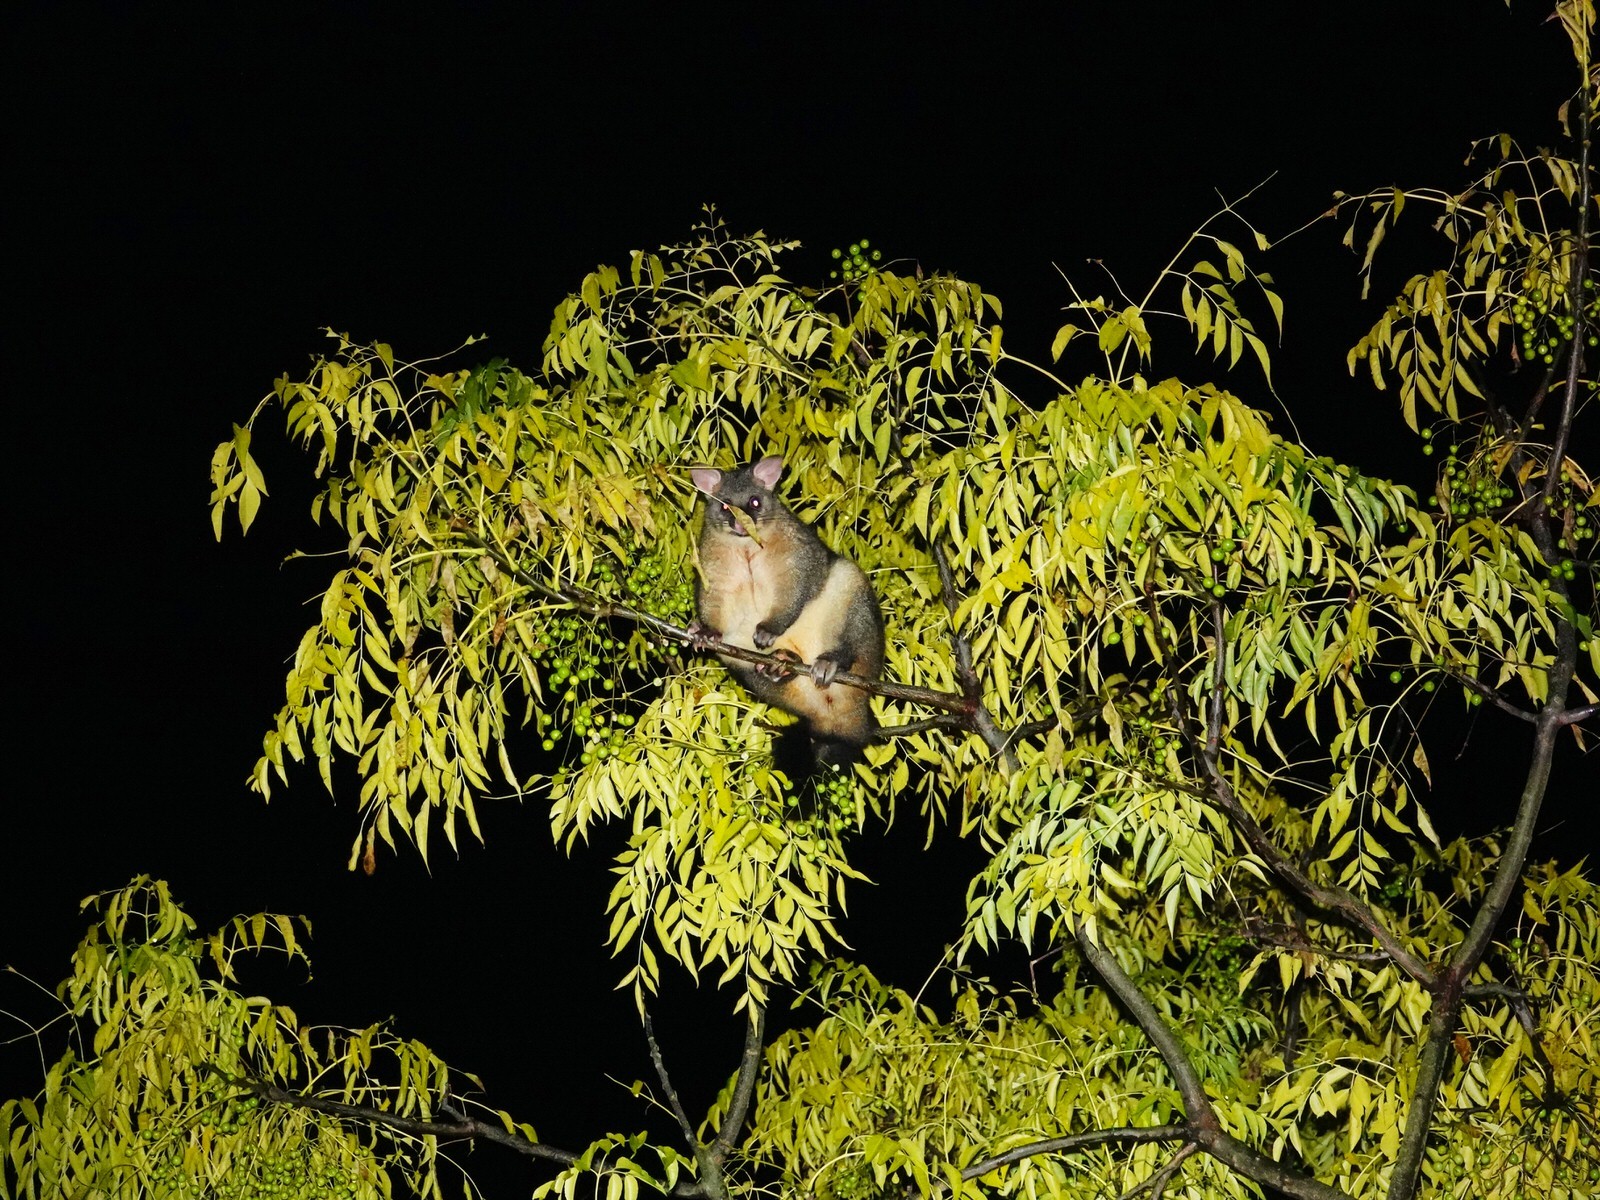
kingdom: Animalia
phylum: Chordata
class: Mammalia
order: Diprotodontia
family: Phalangeridae
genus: Trichosurus
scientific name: Trichosurus vulpecula
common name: Common brushtail
